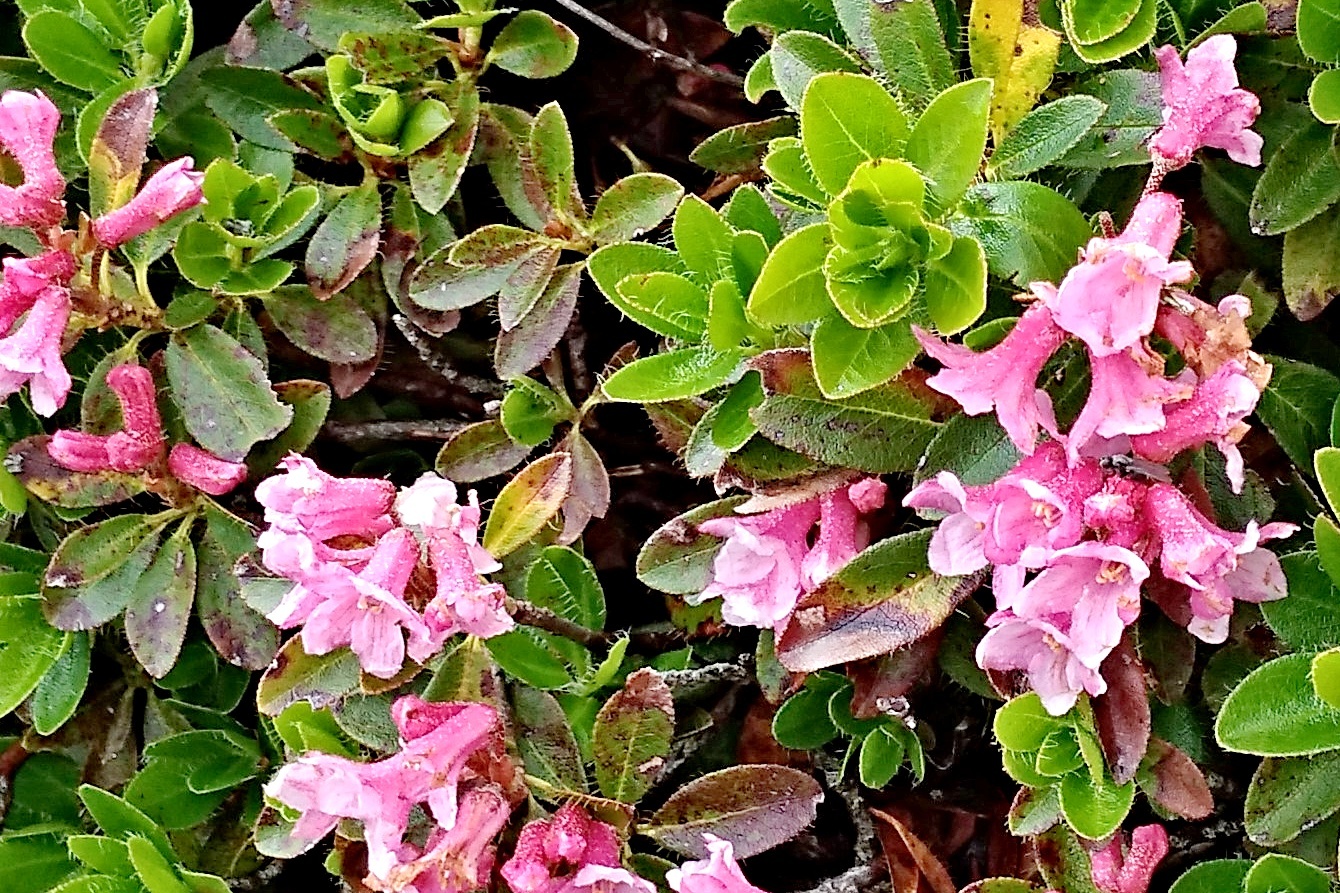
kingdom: Plantae
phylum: Tracheophyta
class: Magnoliopsida
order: Ericales
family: Ericaceae
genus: Rhododendron
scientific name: Rhododendron hirsutum
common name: Hairy alpenrose
